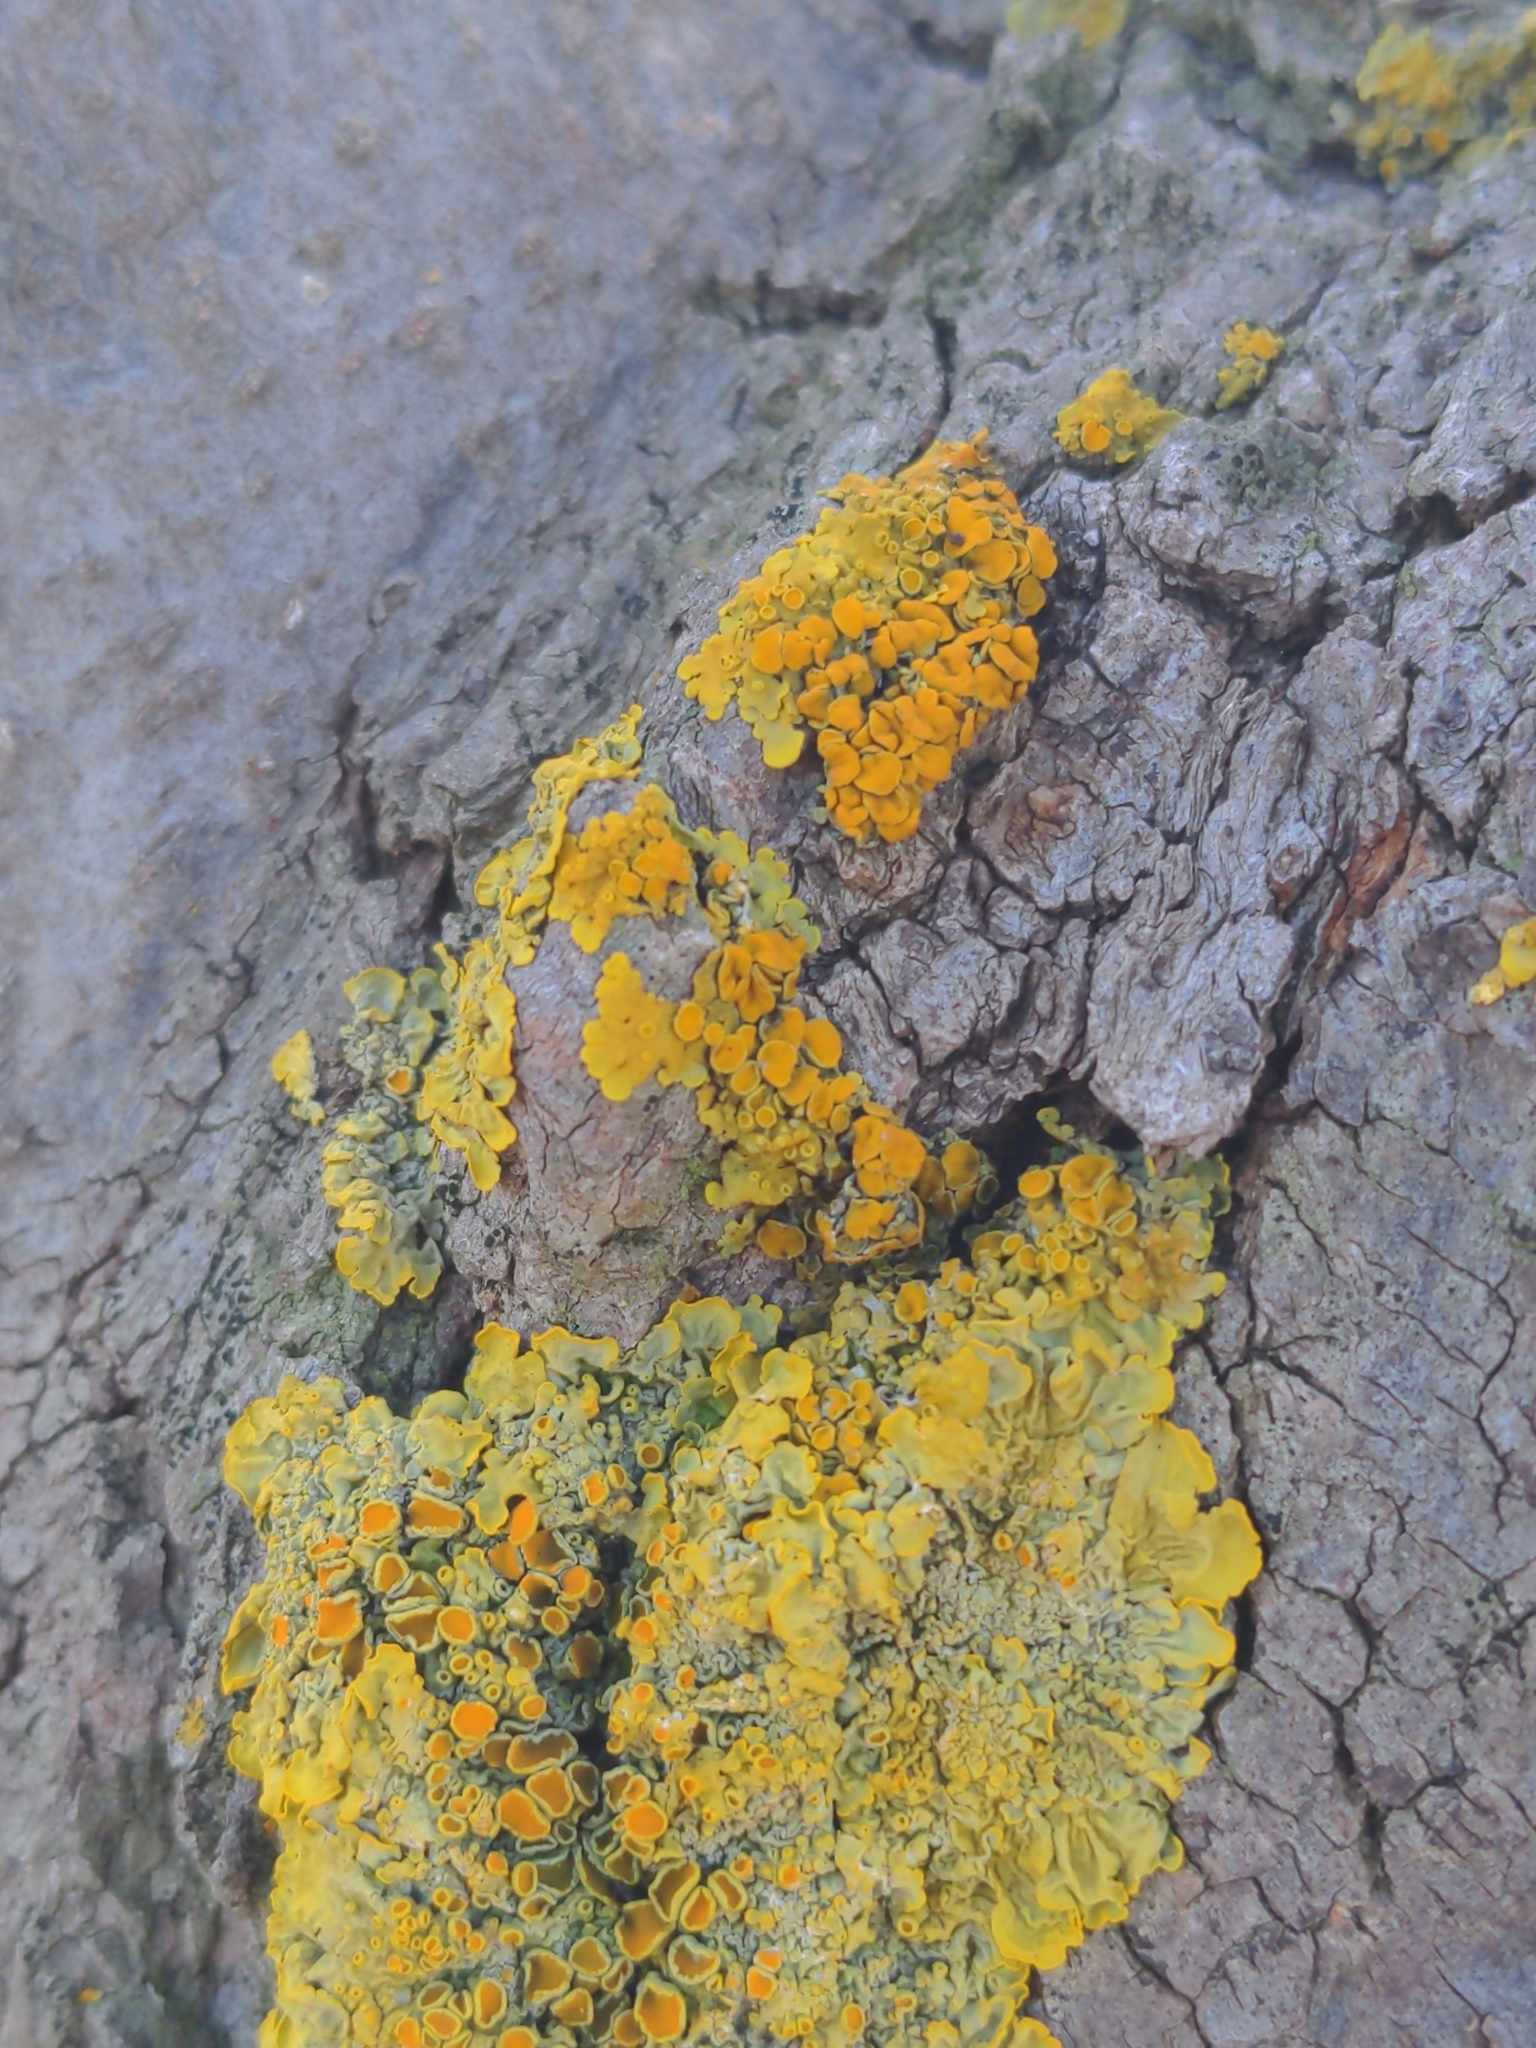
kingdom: Fungi
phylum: Ascomycota
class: Lecanoromycetes
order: Teloschistales
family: Teloschistaceae
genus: Xanthoria
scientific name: Xanthoria parietina
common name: Common orange lichen
